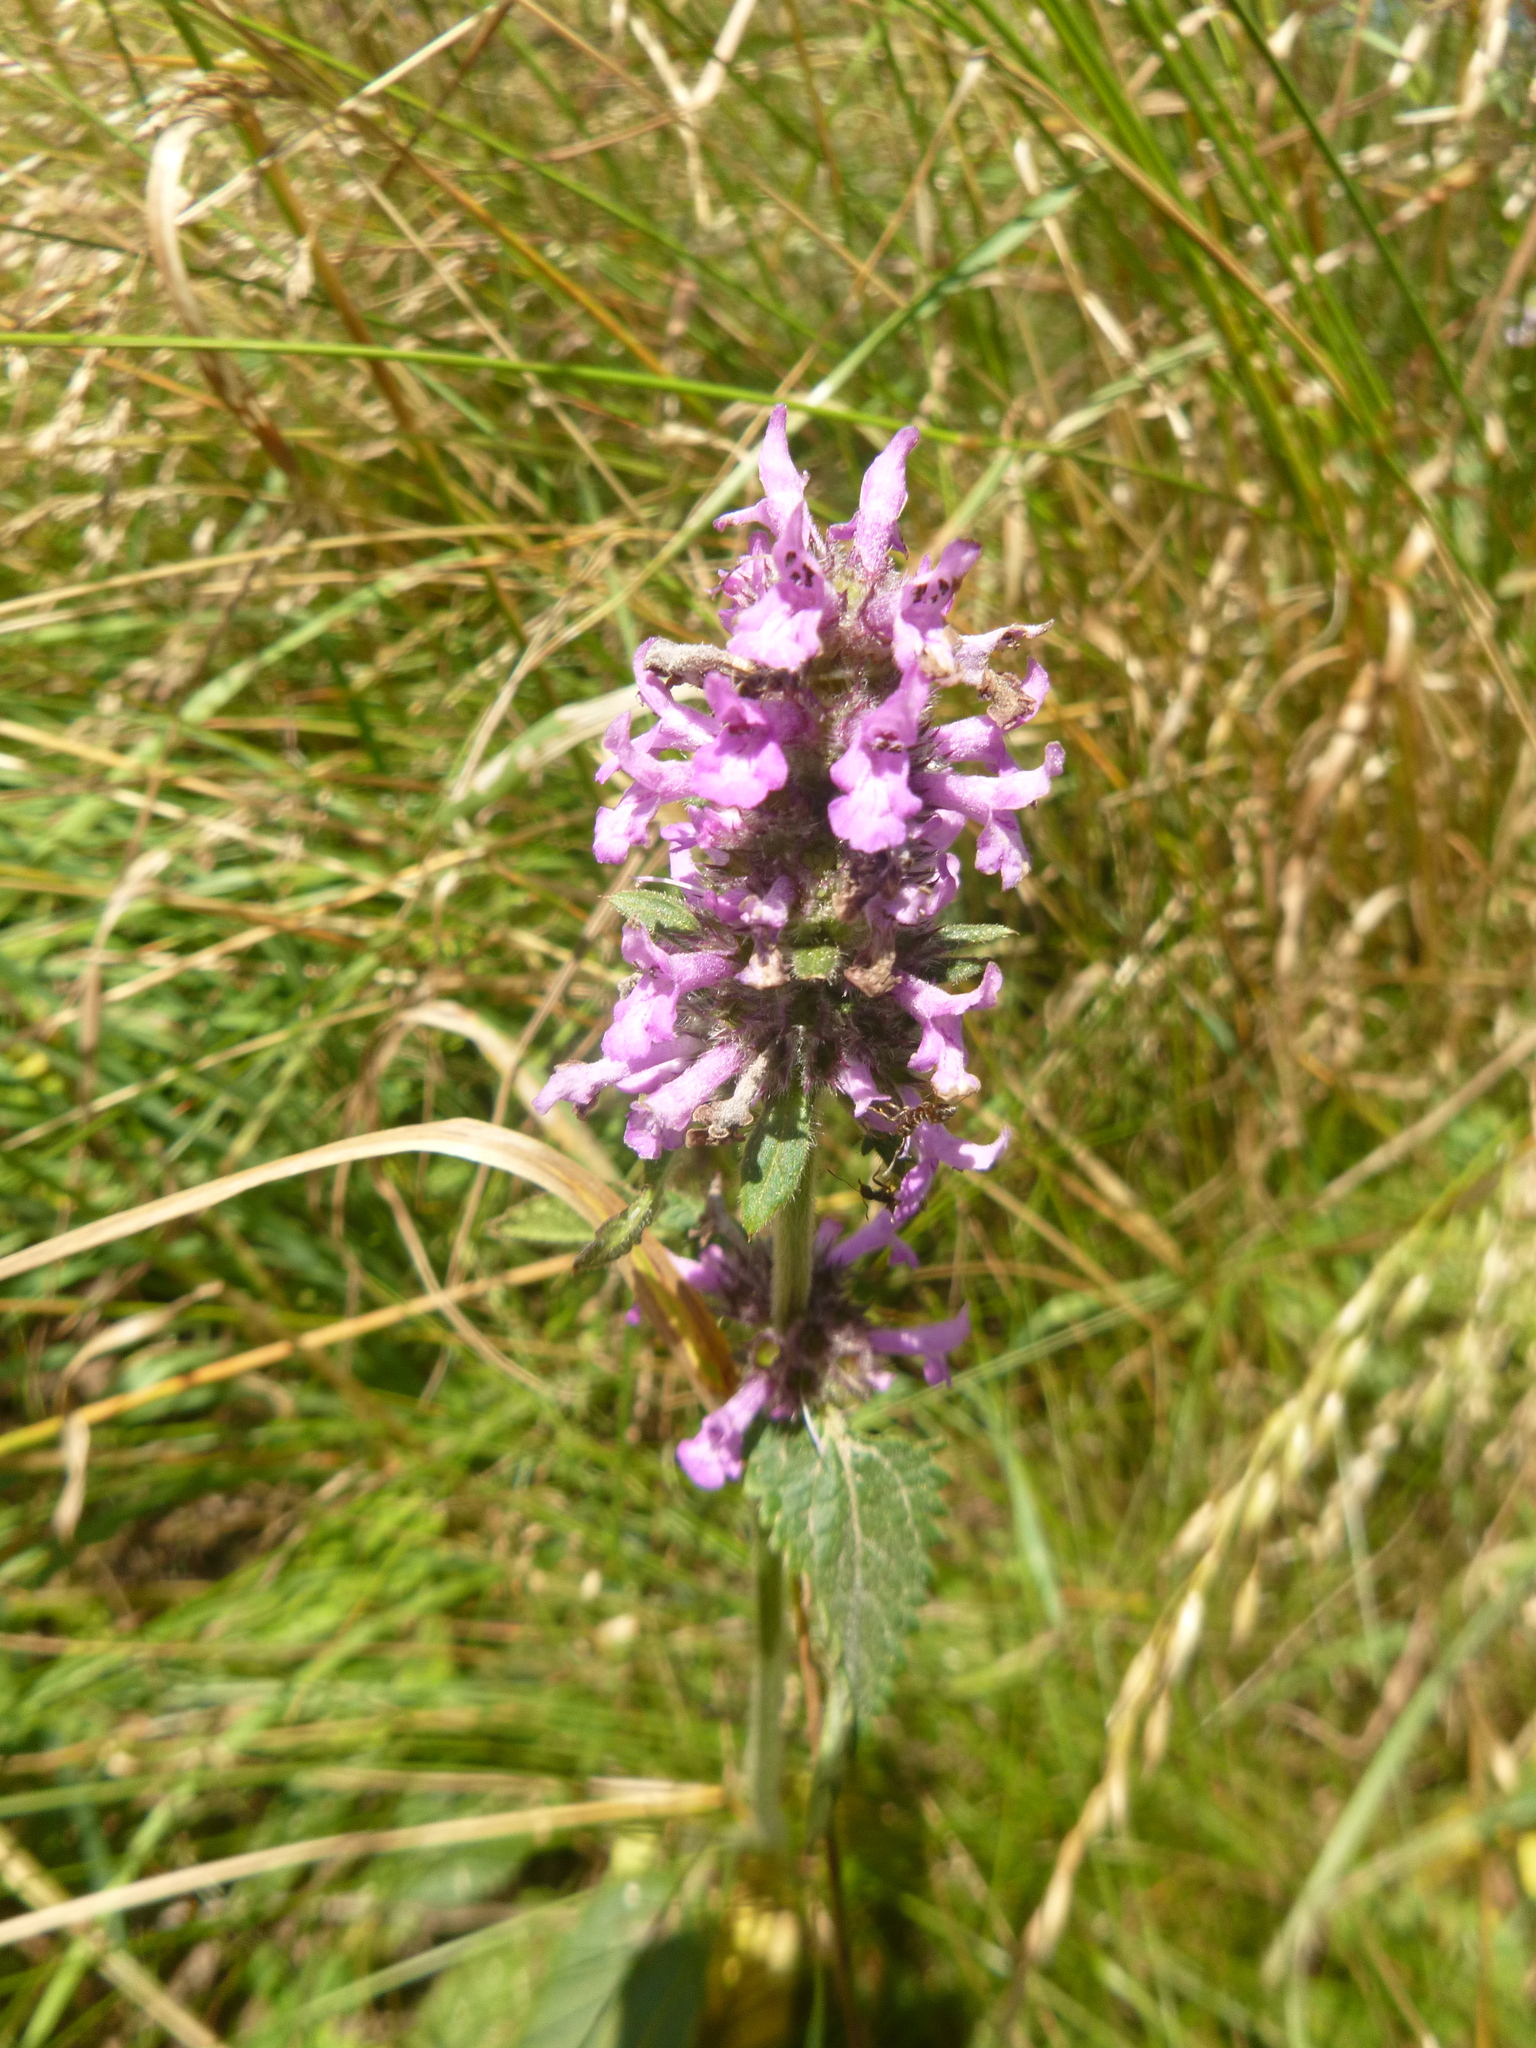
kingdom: Plantae
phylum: Tracheophyta
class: Magnoliopsida
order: Lamiales
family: Lamiaceae
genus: Betonica
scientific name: Betonica officinalis
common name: Bishop's-wort
